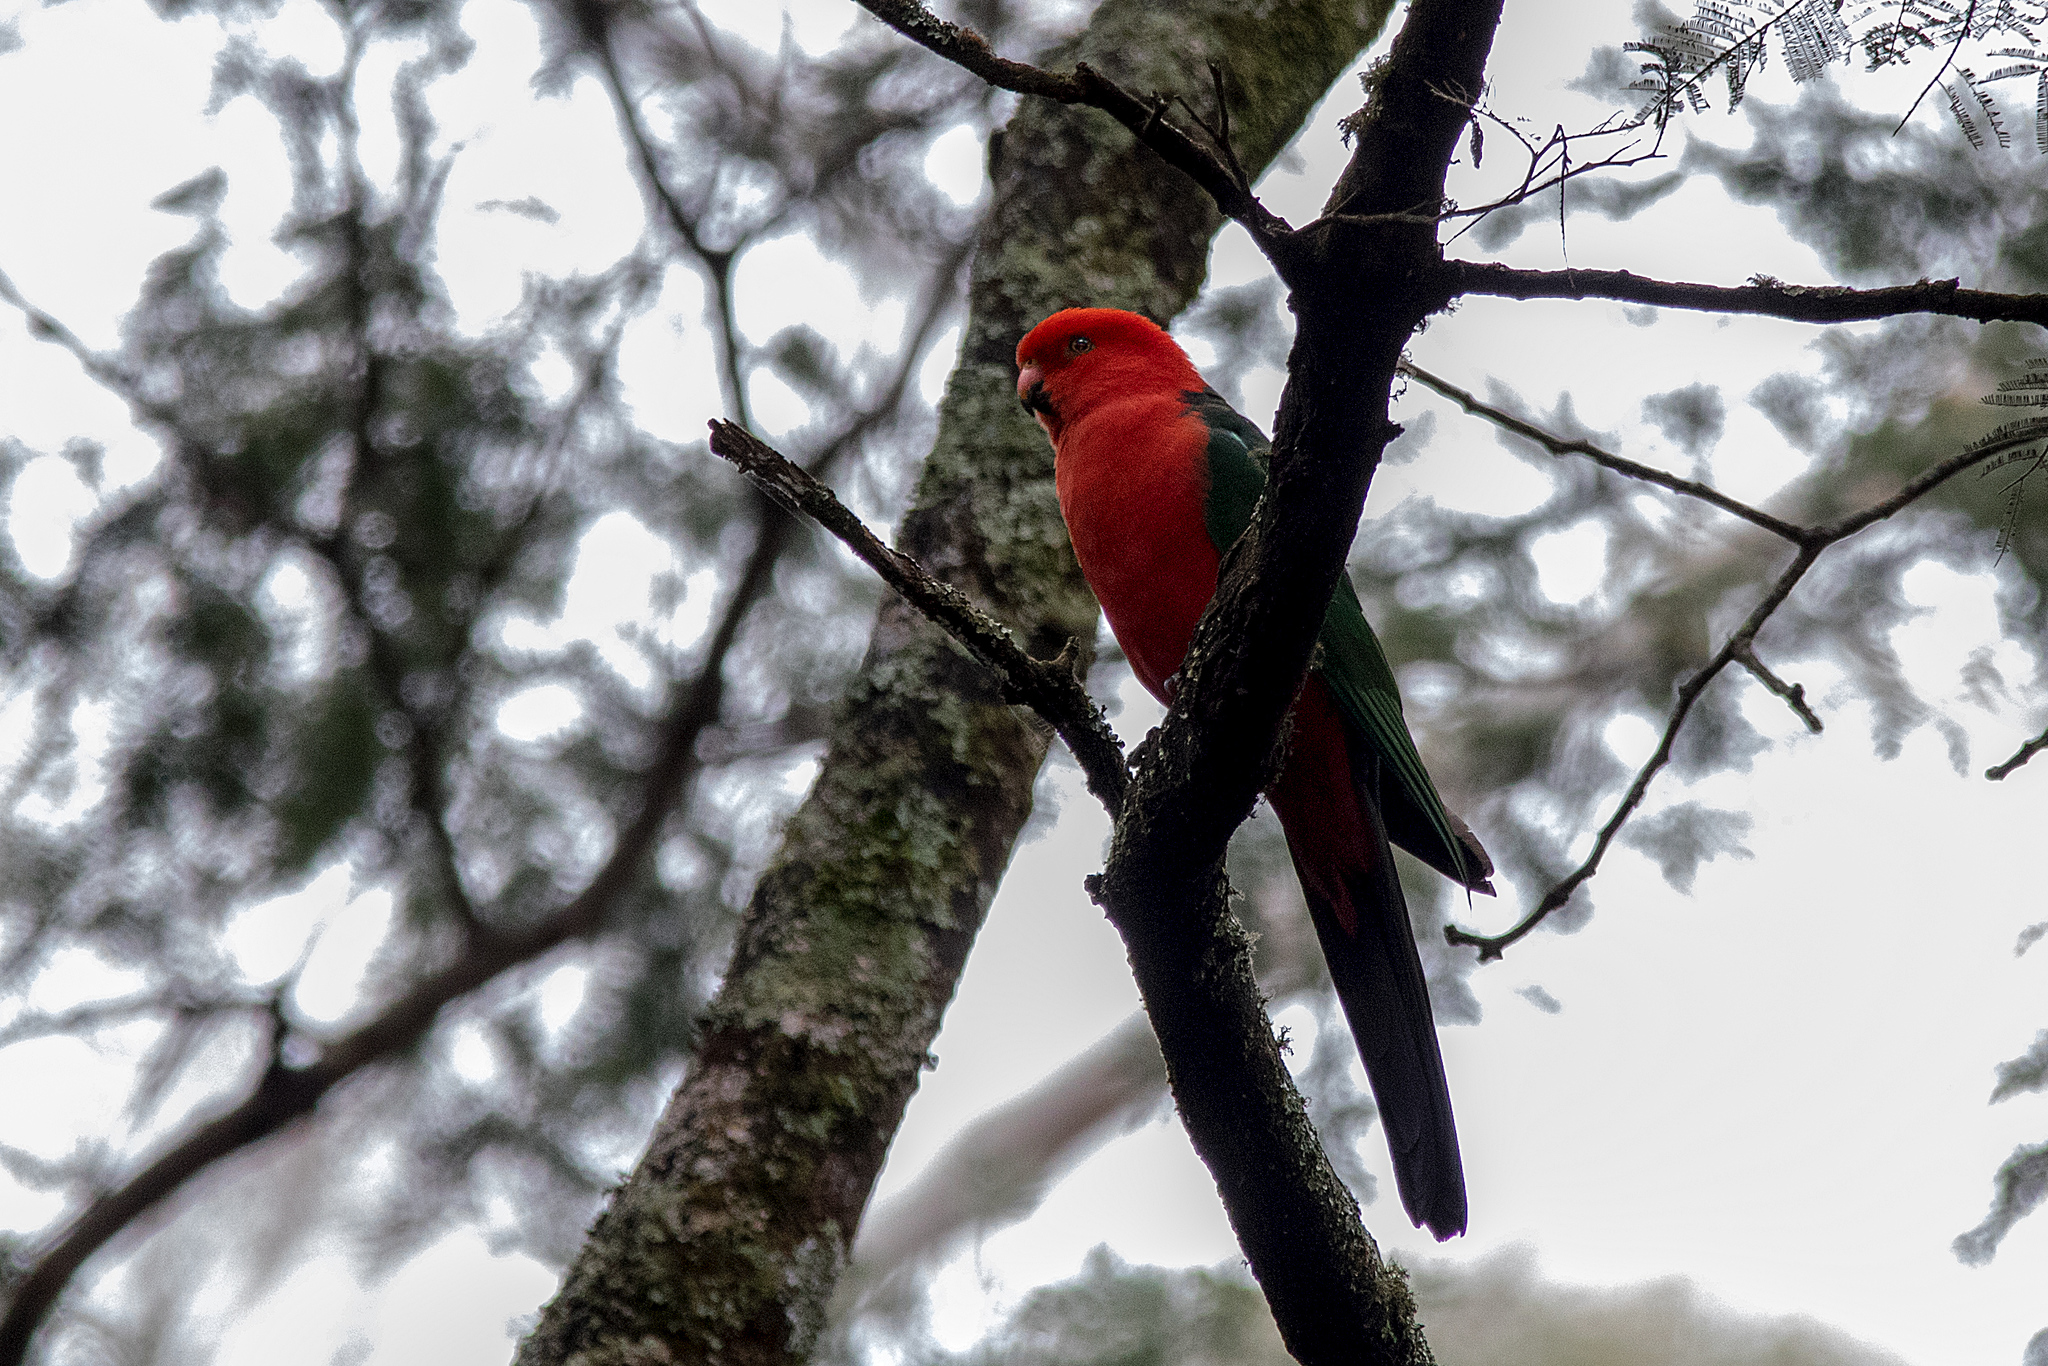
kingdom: Animalia
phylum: Chordata
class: Aves
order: Psittaciformes
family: Psittacidae
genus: Alisterus
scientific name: Alisterus scapularis
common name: Australian king parrot
